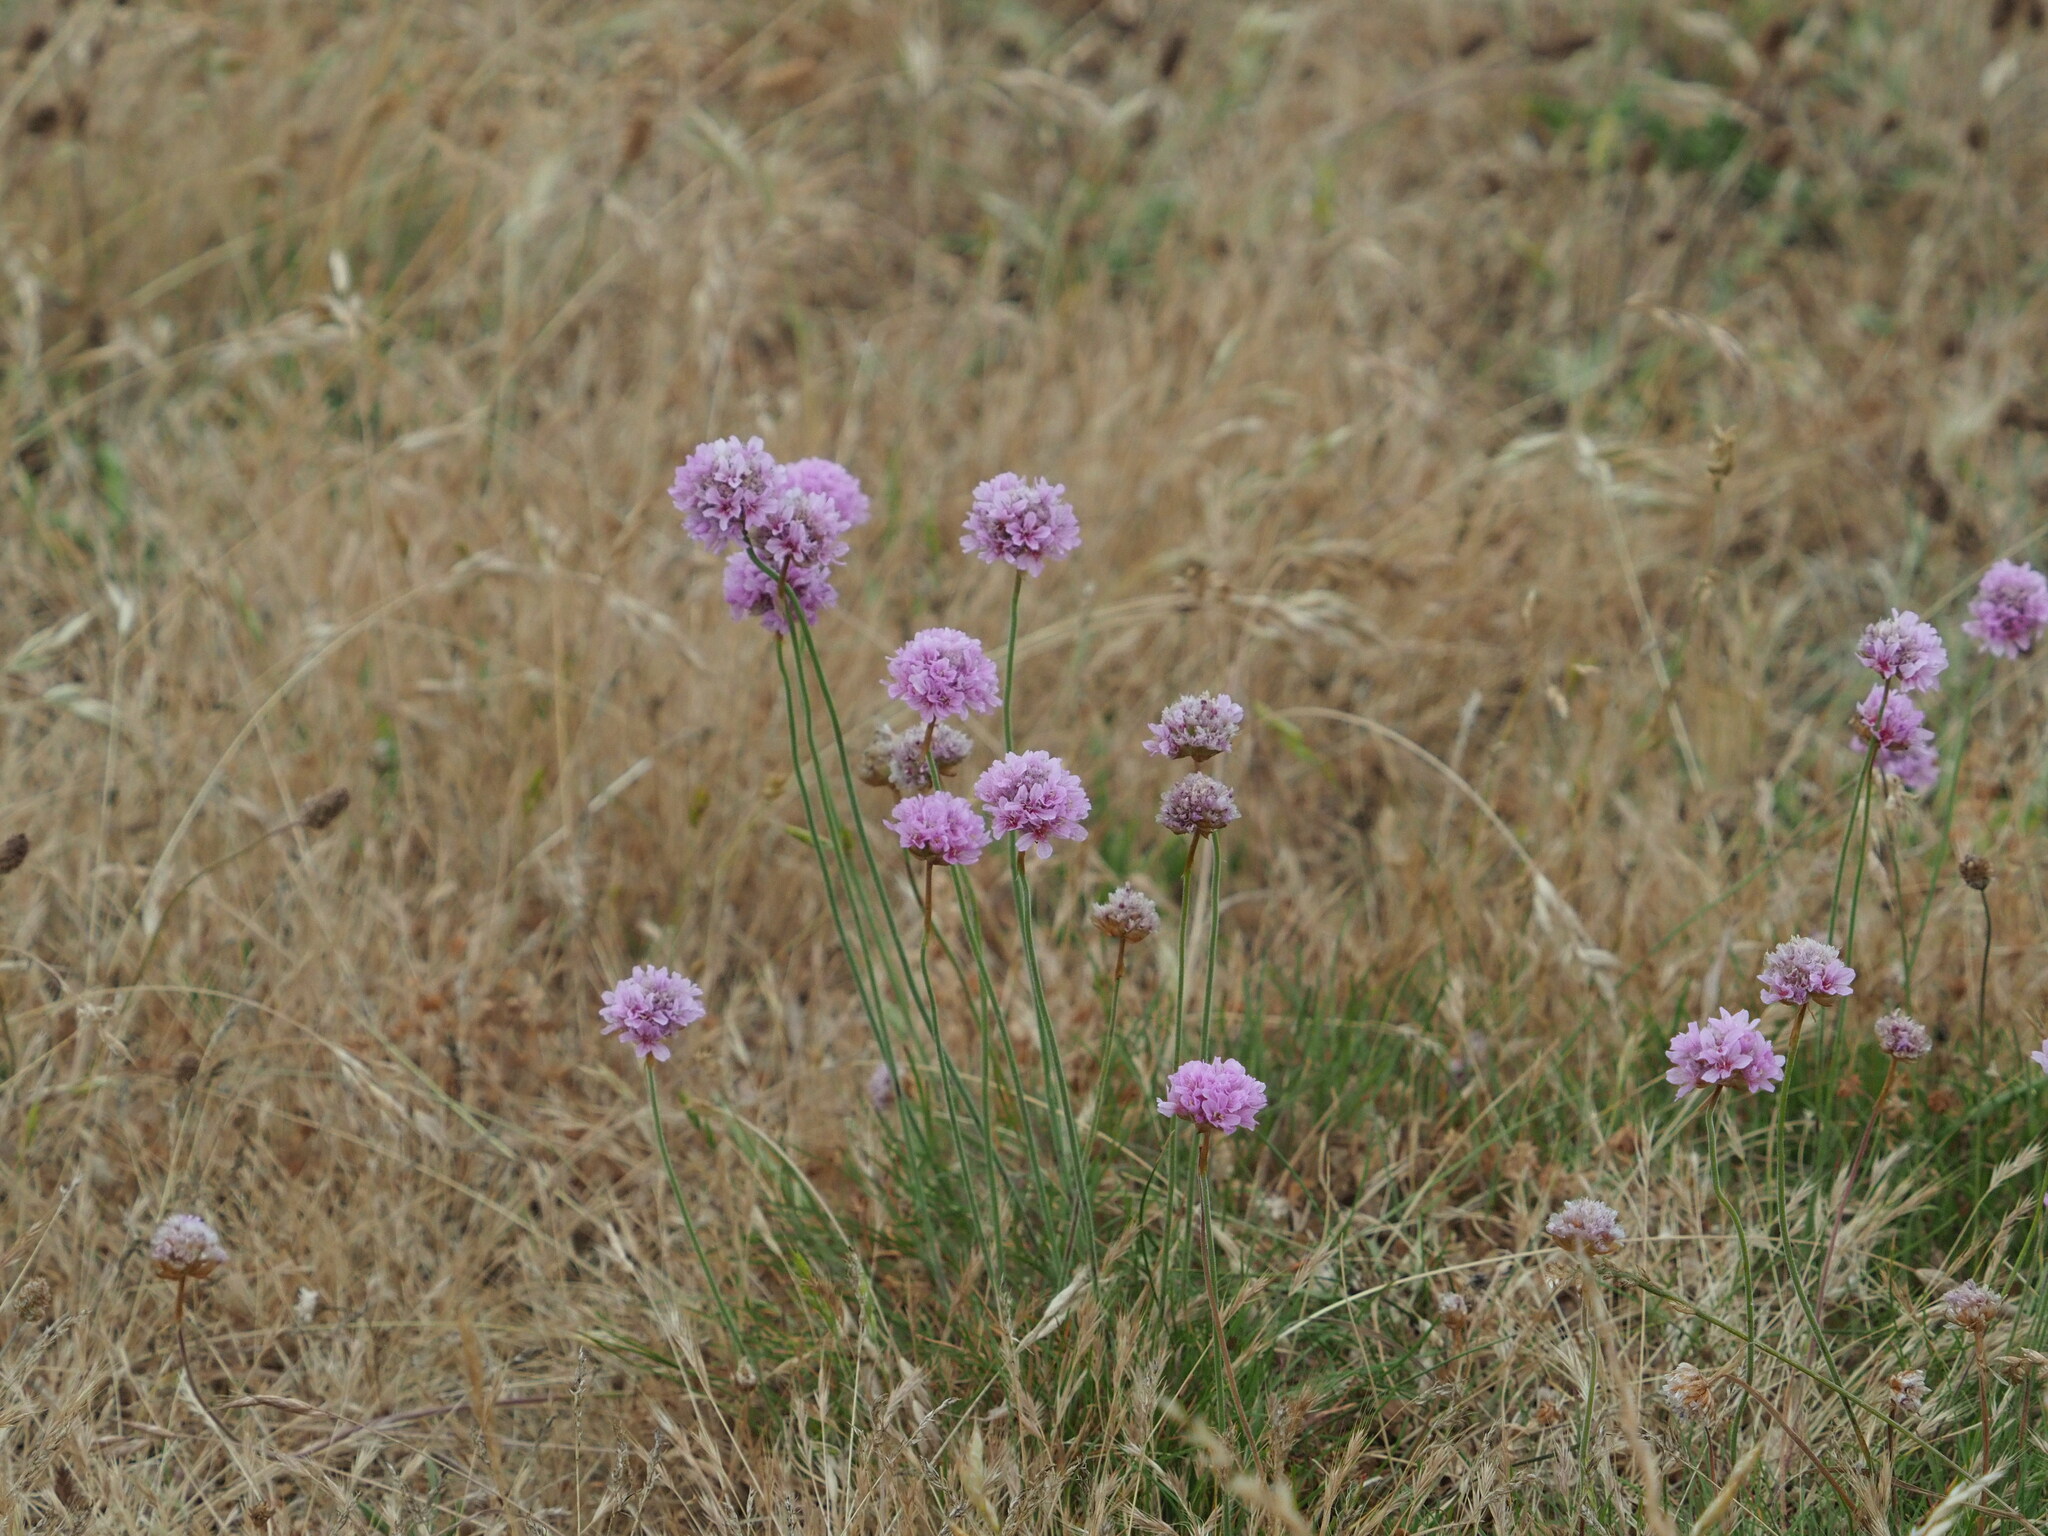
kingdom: Plantae
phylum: Tracheophyta
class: Magnoliopsida
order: Caryophyllales
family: Plumbaginaceae
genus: Armeria
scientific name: Armeria maritima
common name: Thrift
